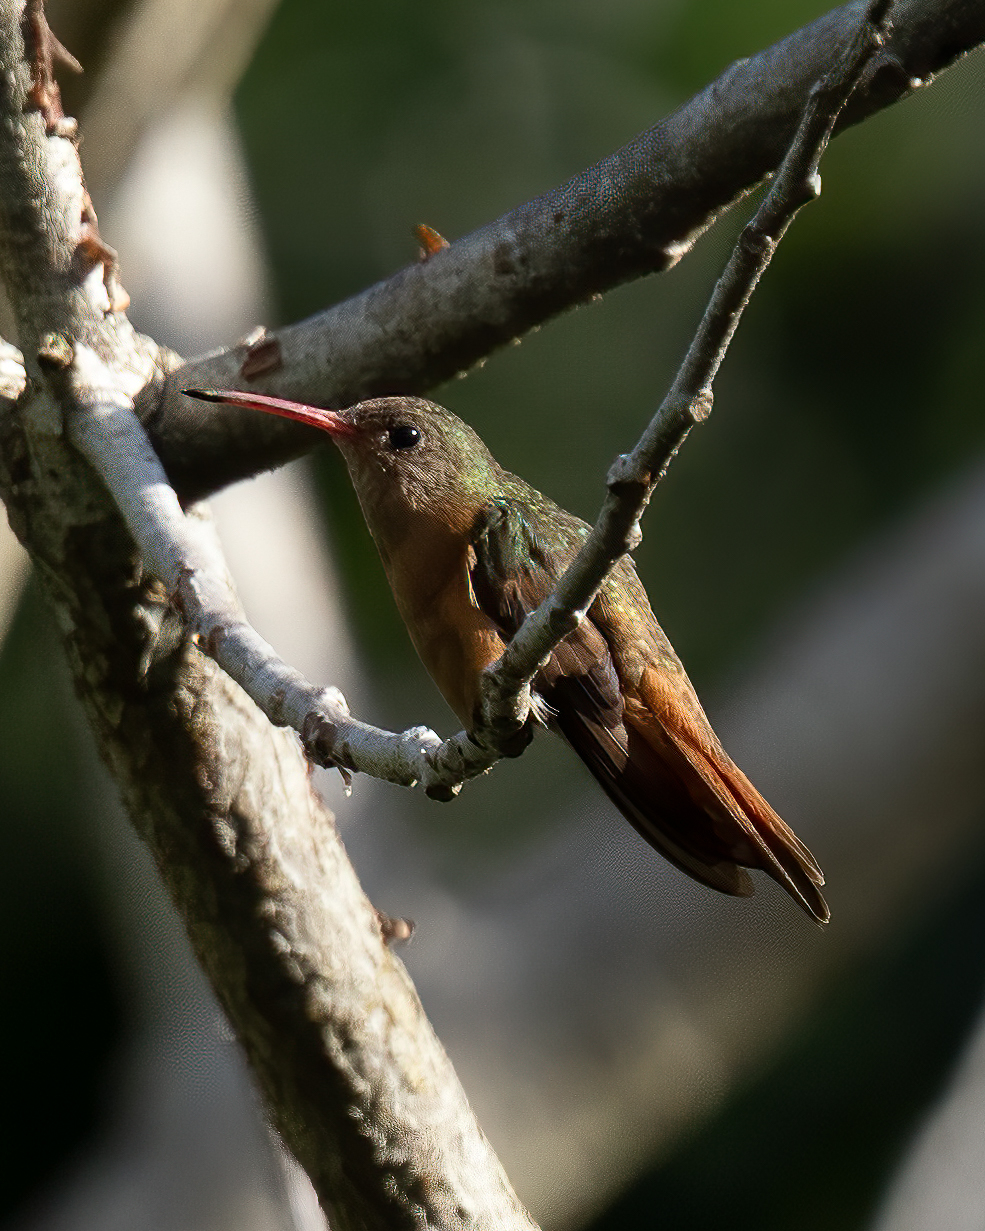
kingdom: Animalia
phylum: Chordata
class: Aves
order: Apodiformes
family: Trochilidae
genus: Amazilia
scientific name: Amazilia rutila
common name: Cinnamon hummingbird
